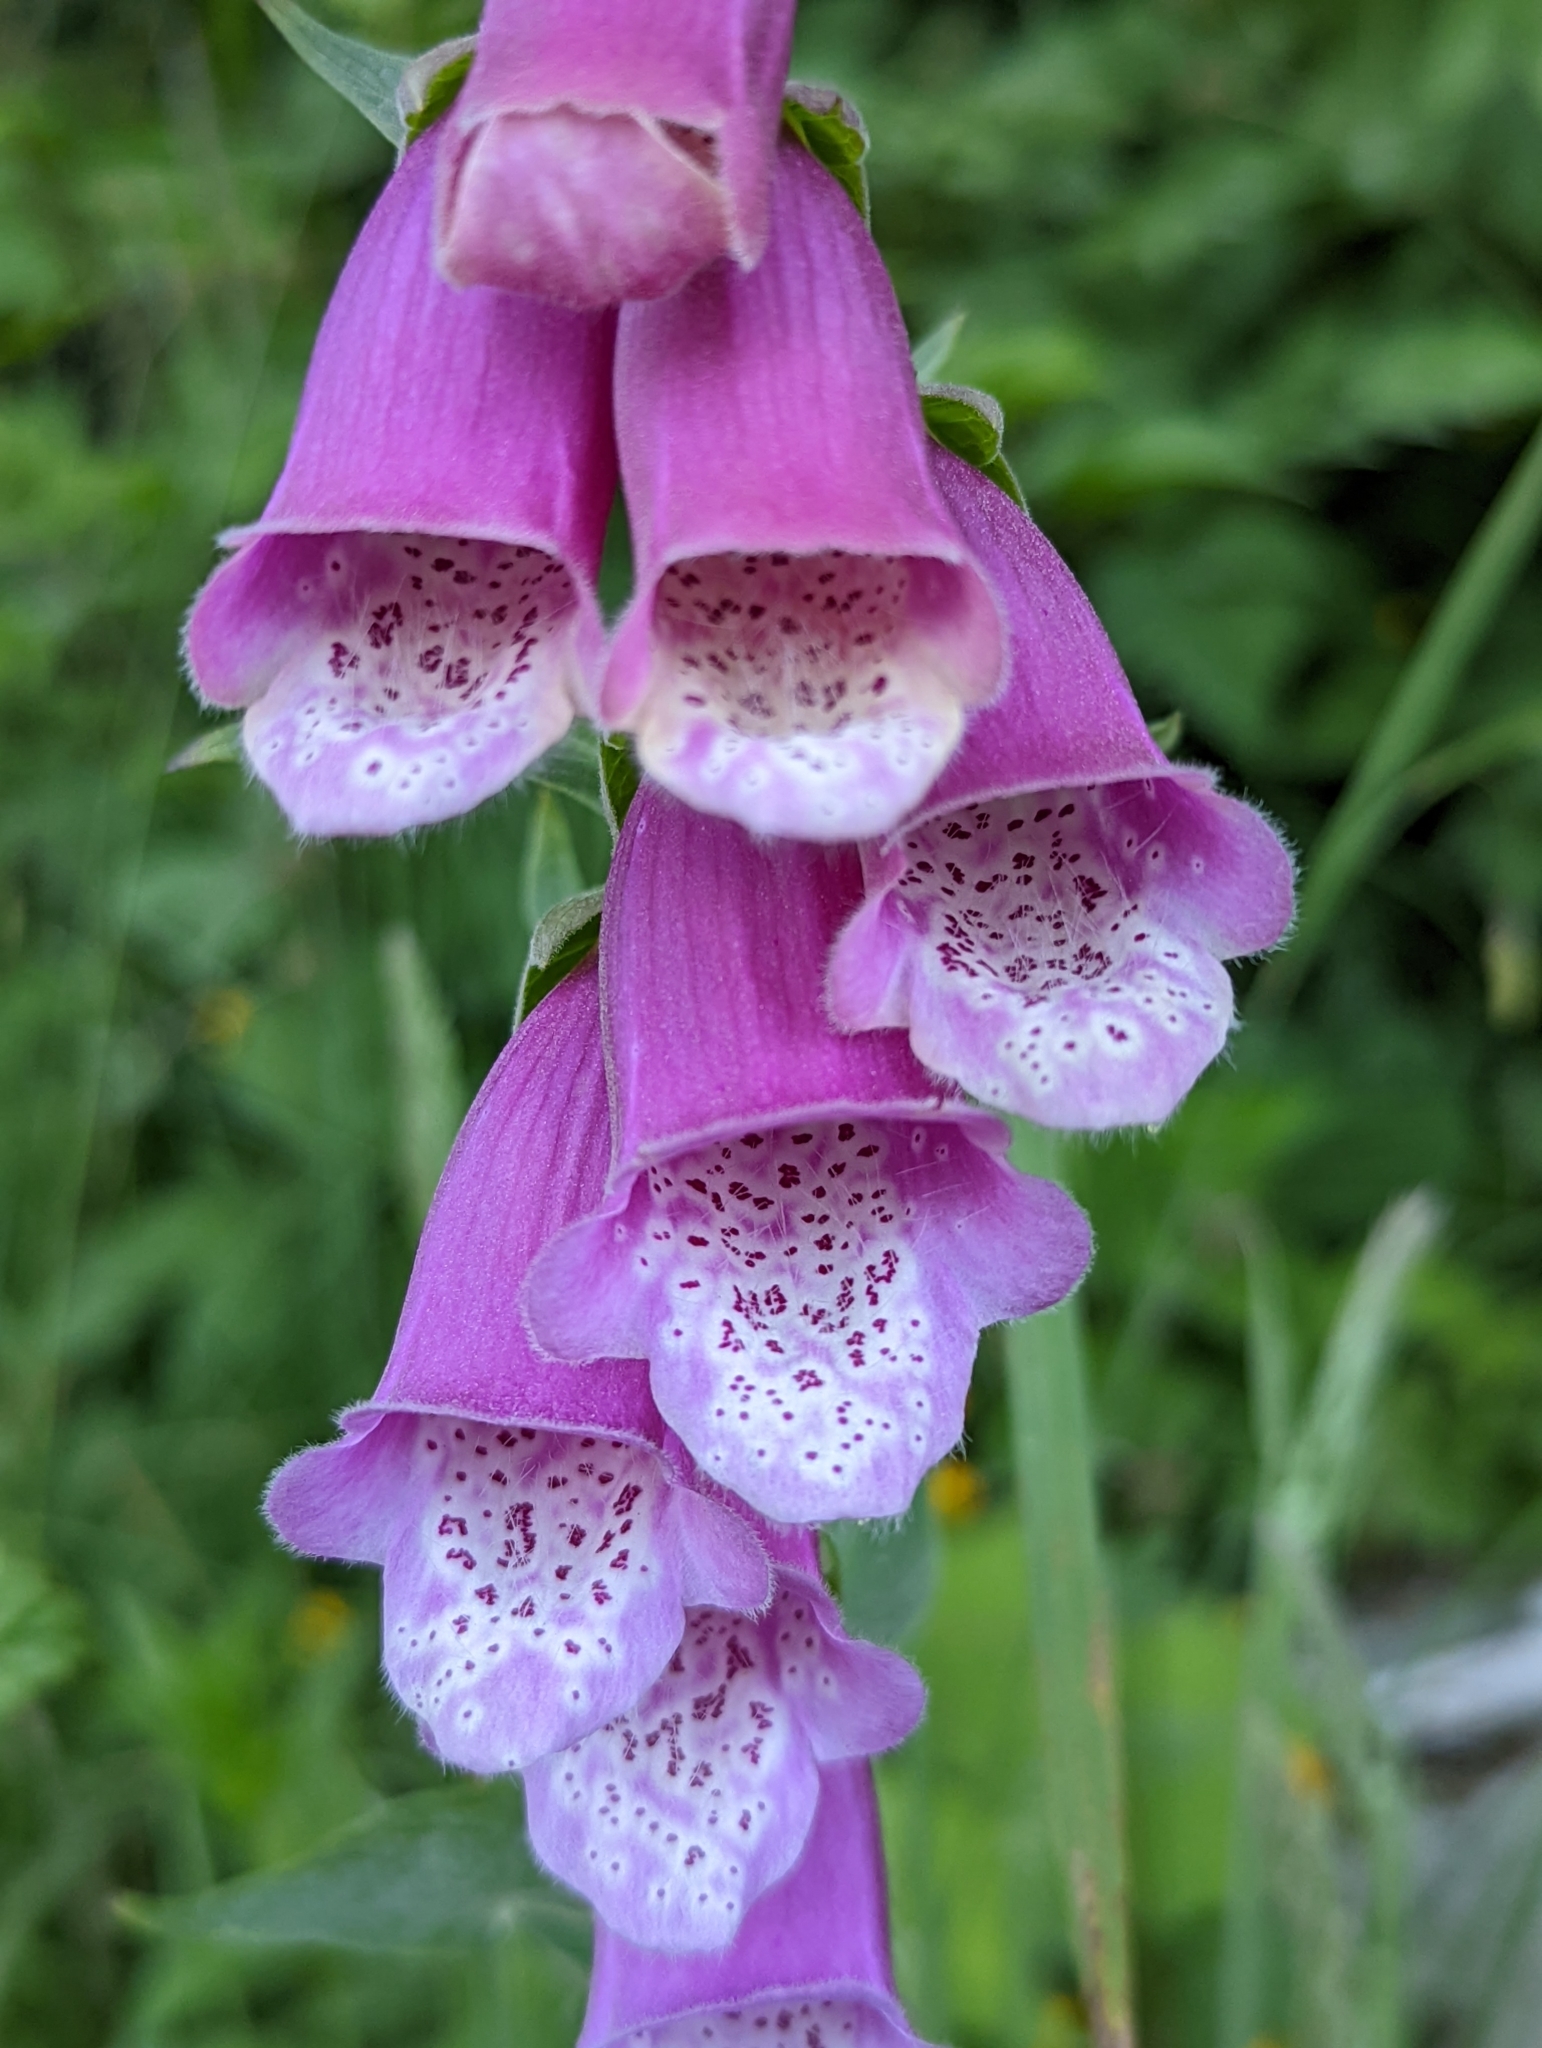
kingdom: Plantae
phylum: Tracheophyta
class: Magnoliopsida
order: Lamiales
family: Plantaginaceae
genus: Digitalis
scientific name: Digitalis purpurea
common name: Foxglove
